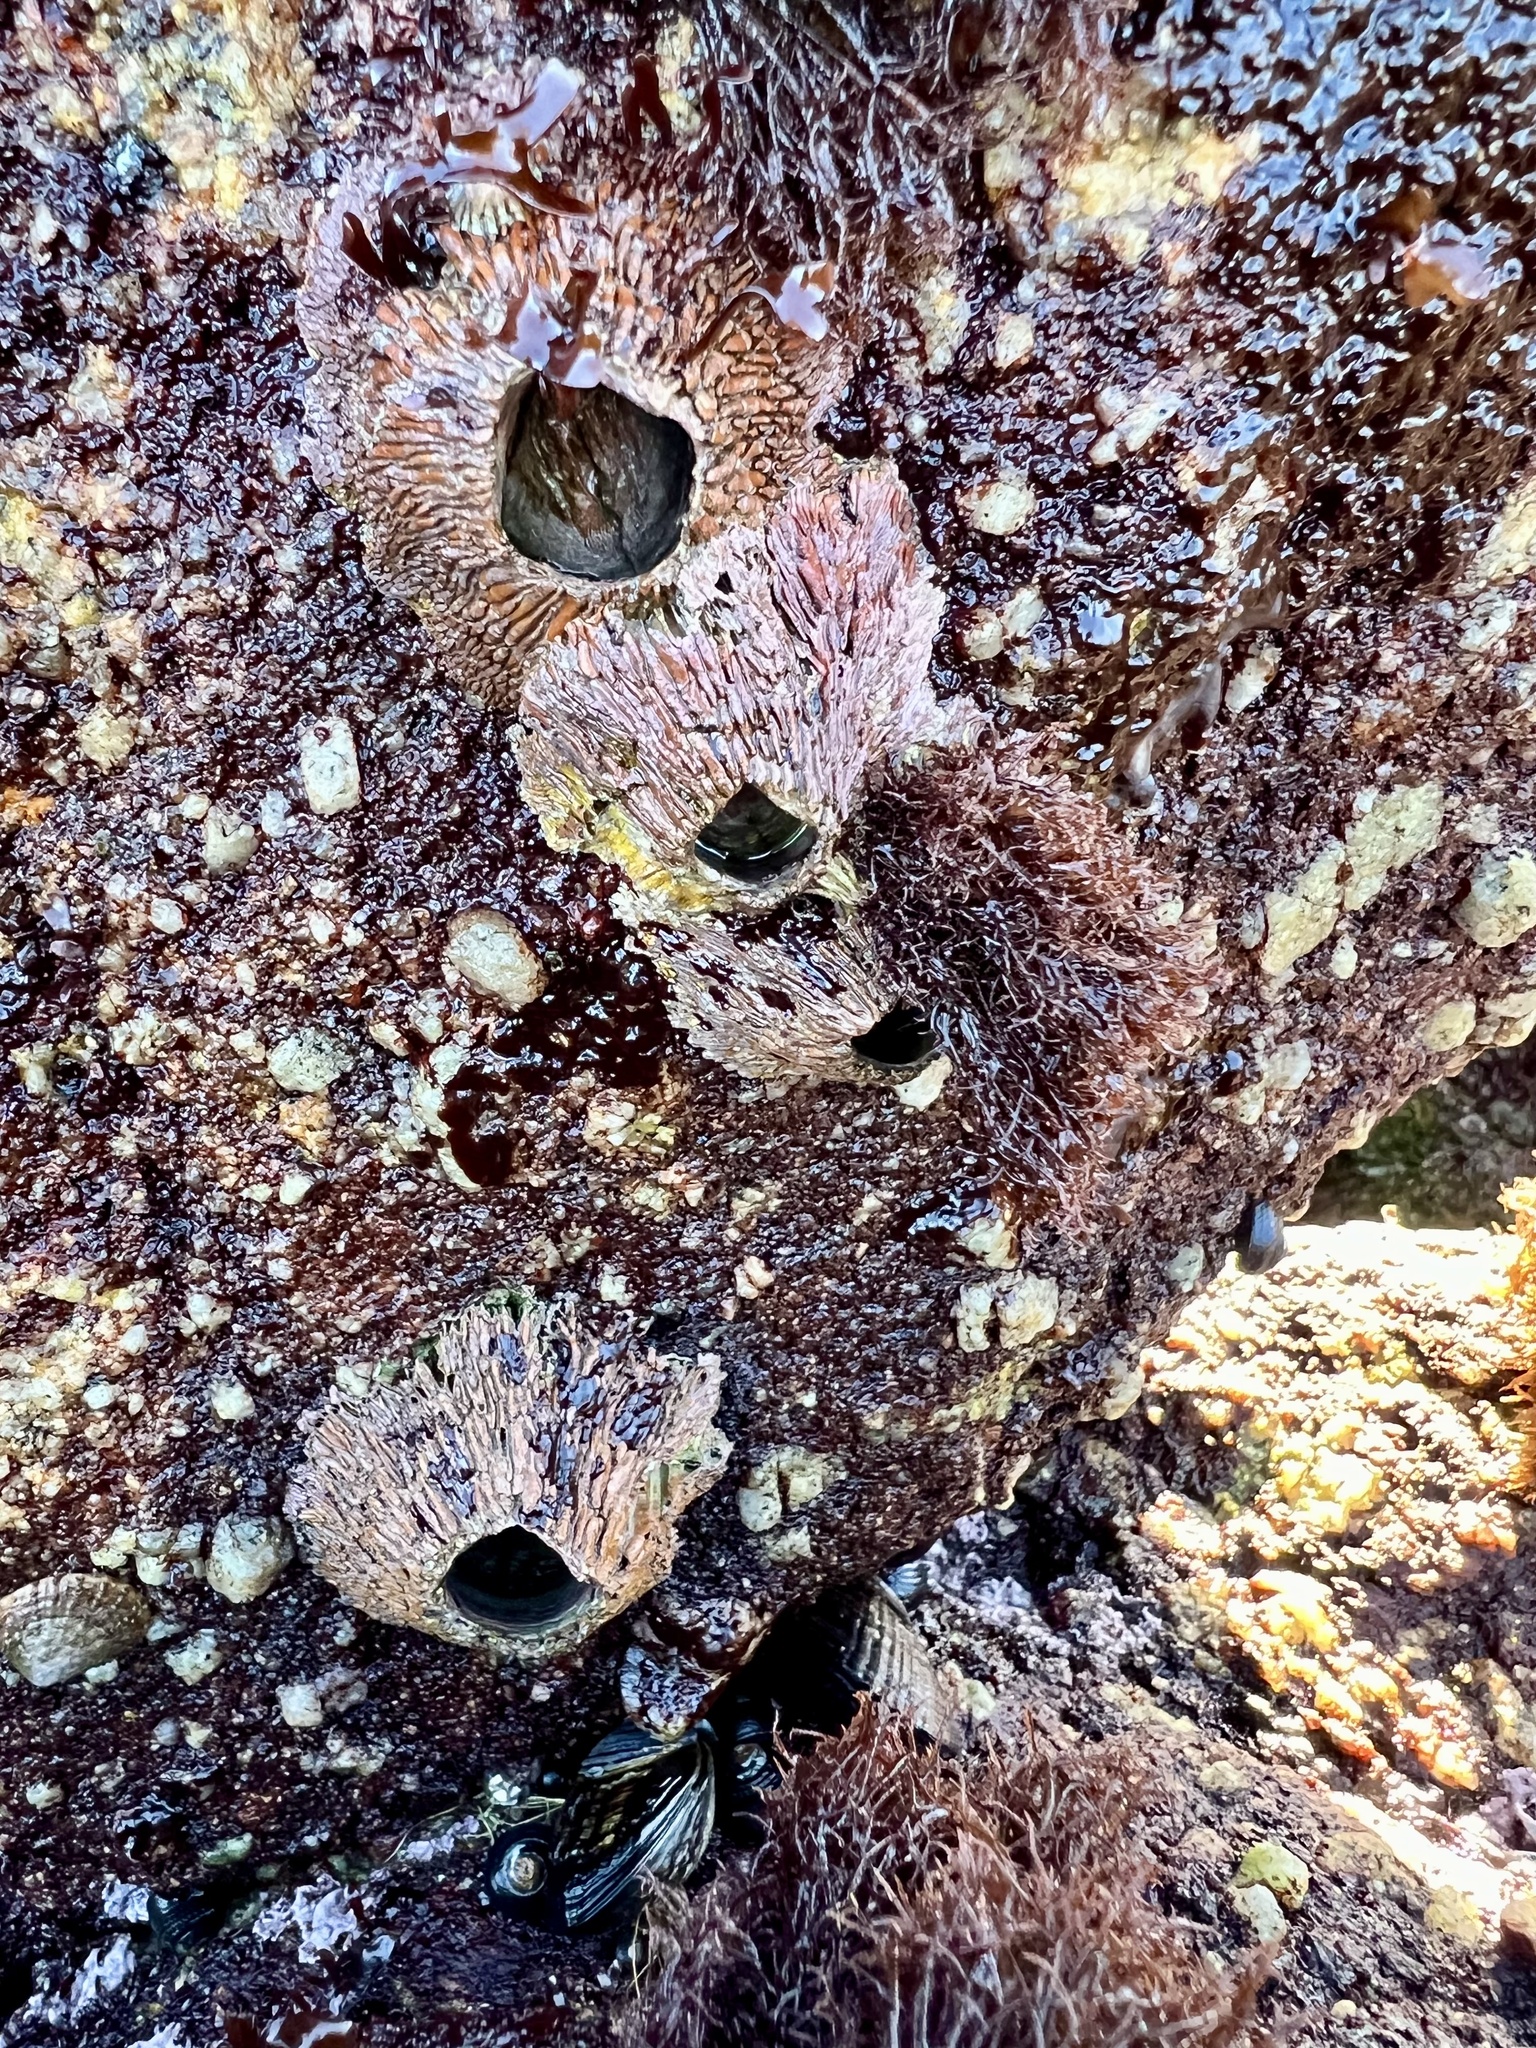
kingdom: Animalia
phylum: Arthropoda
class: Maxillopoda
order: Sessilia
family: Tetraclitidae
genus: Tetraclita
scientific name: Tetraclita rubescens
